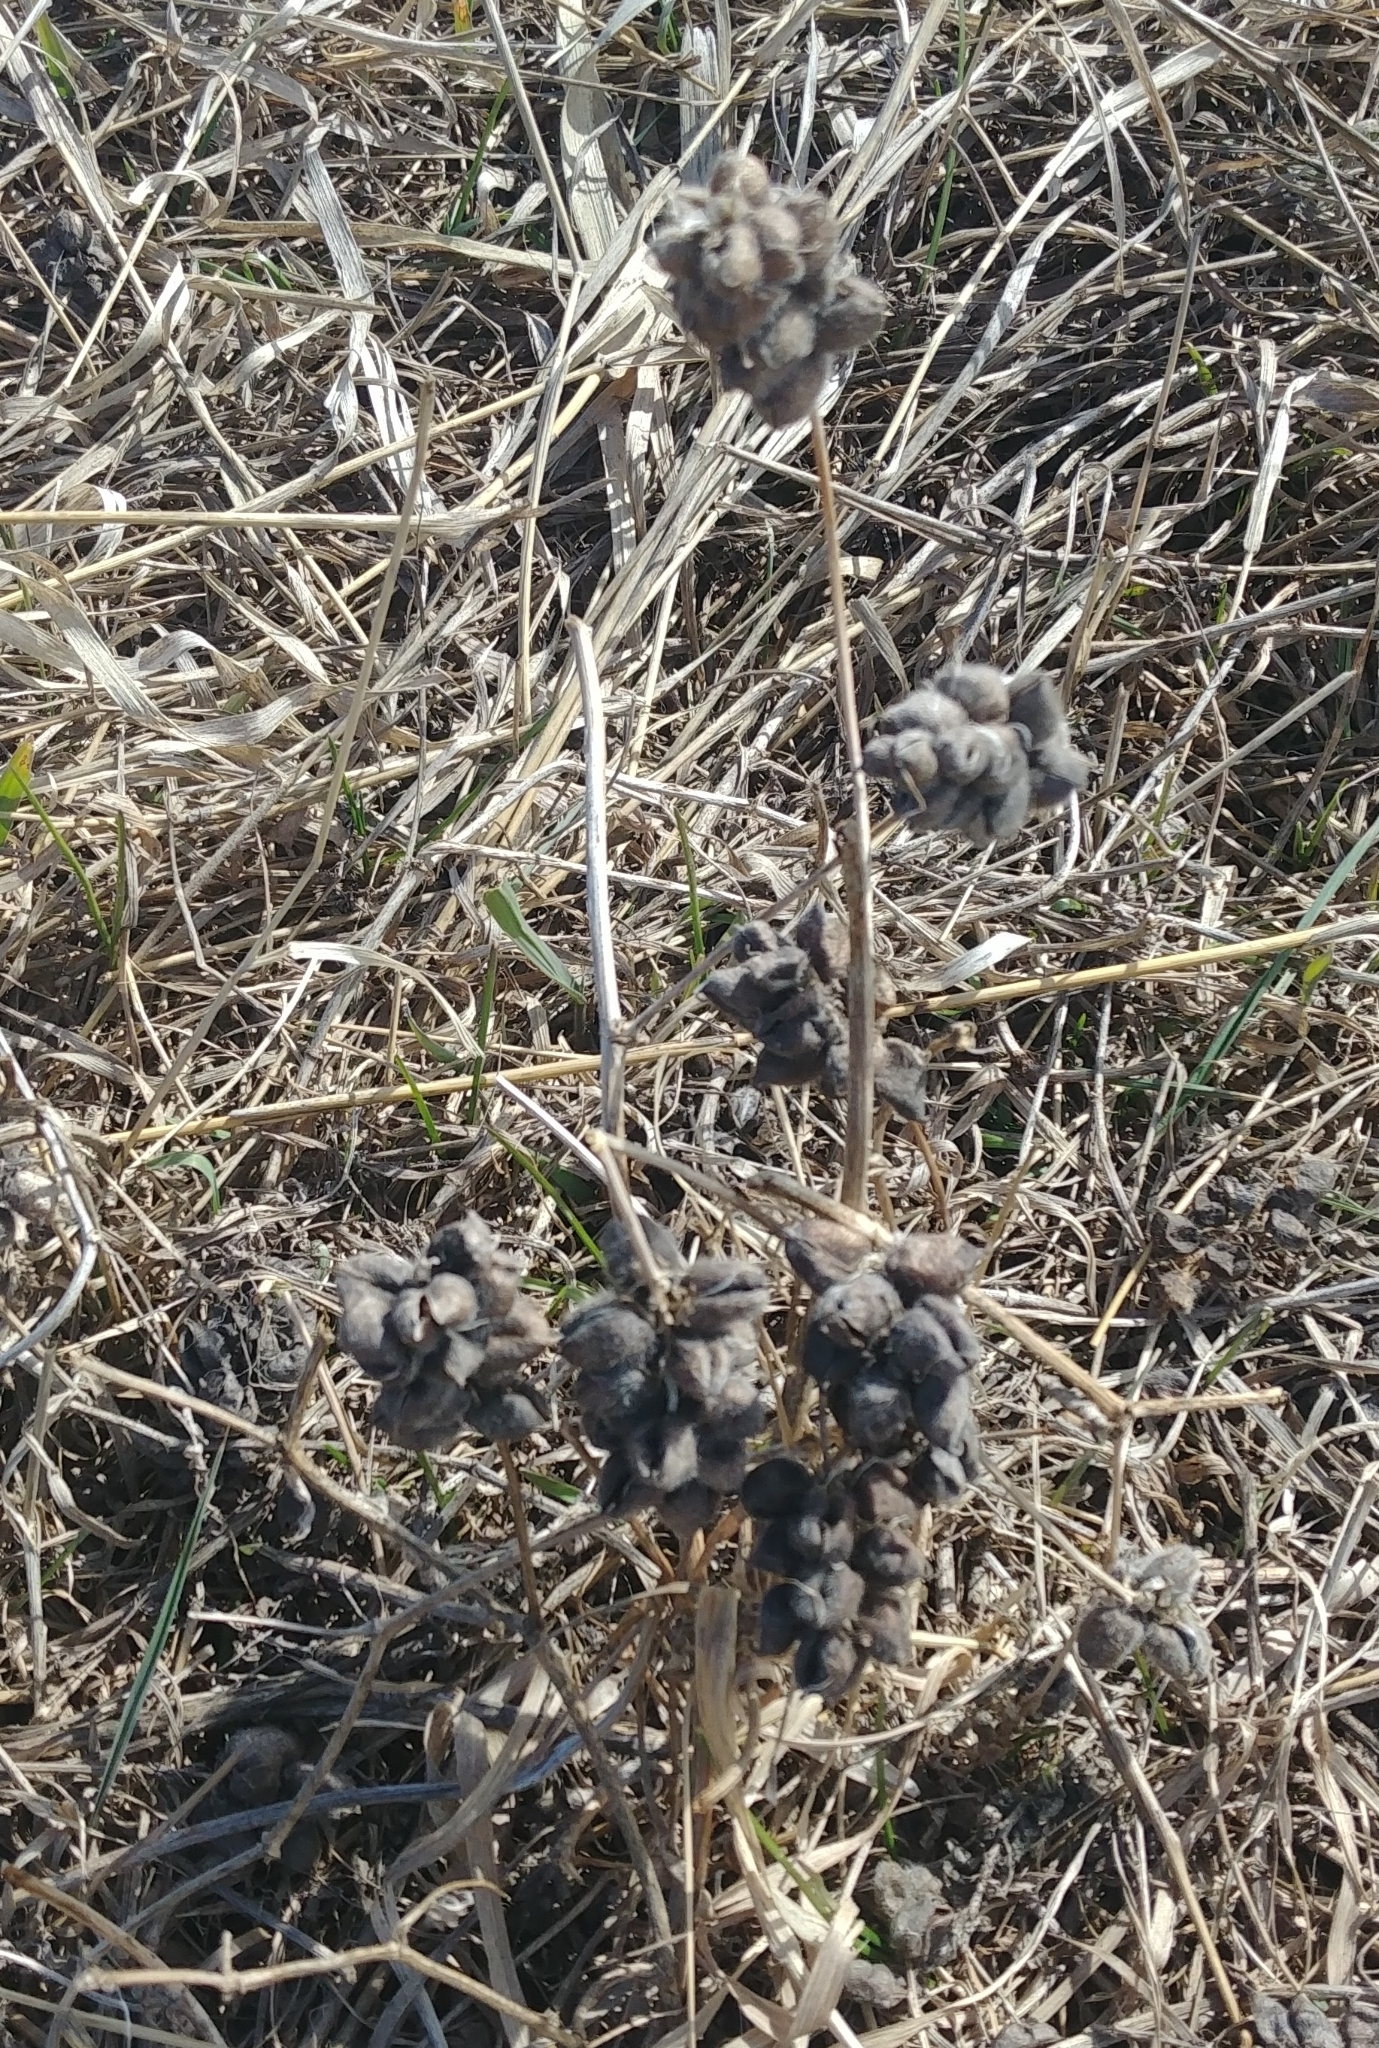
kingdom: Plantae
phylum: Tracheophyta
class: Magnoliopsida
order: Fabales
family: Fabaceae
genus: Astragalus
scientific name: Astragalus cicer
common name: Chick-pea milk-vetch
